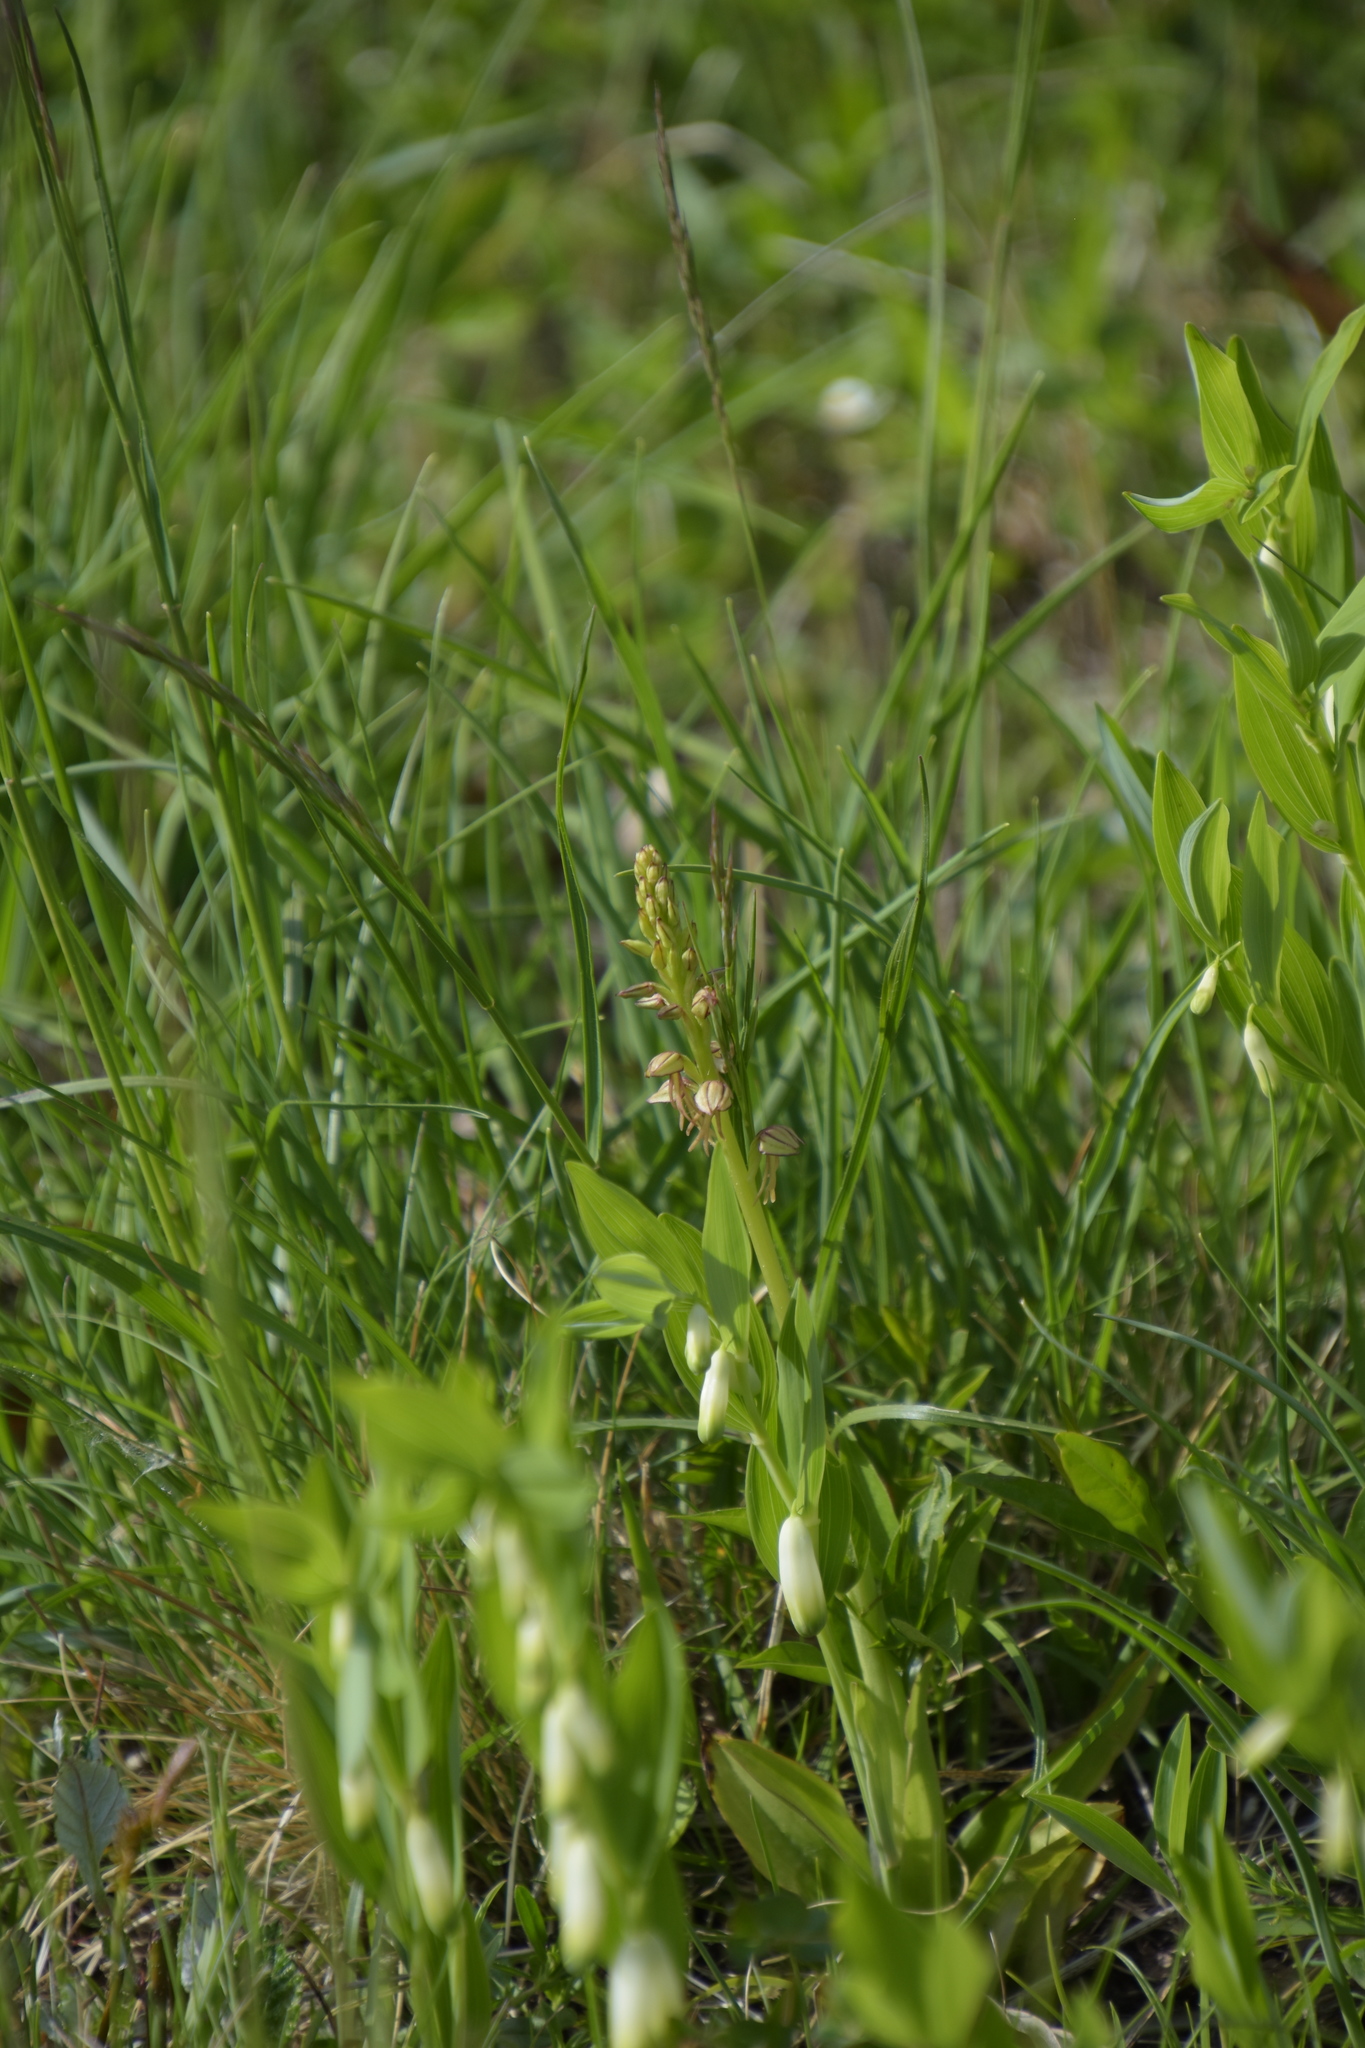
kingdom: Plantae
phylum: Tracheophyta
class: Liliopsida
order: Asparagales
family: Orchidaceae
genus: Orchis
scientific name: Orchis anthropophora
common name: Man orchid
